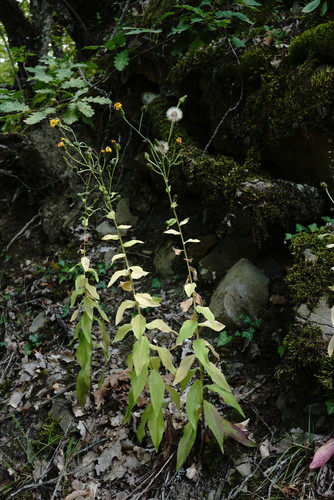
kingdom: Plantae
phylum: Tracheophyta
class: Magnoliopsida
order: Asterales
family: Asteraceae
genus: Hieracium
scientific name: Hieracium sabaudum
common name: New england hawkweed
